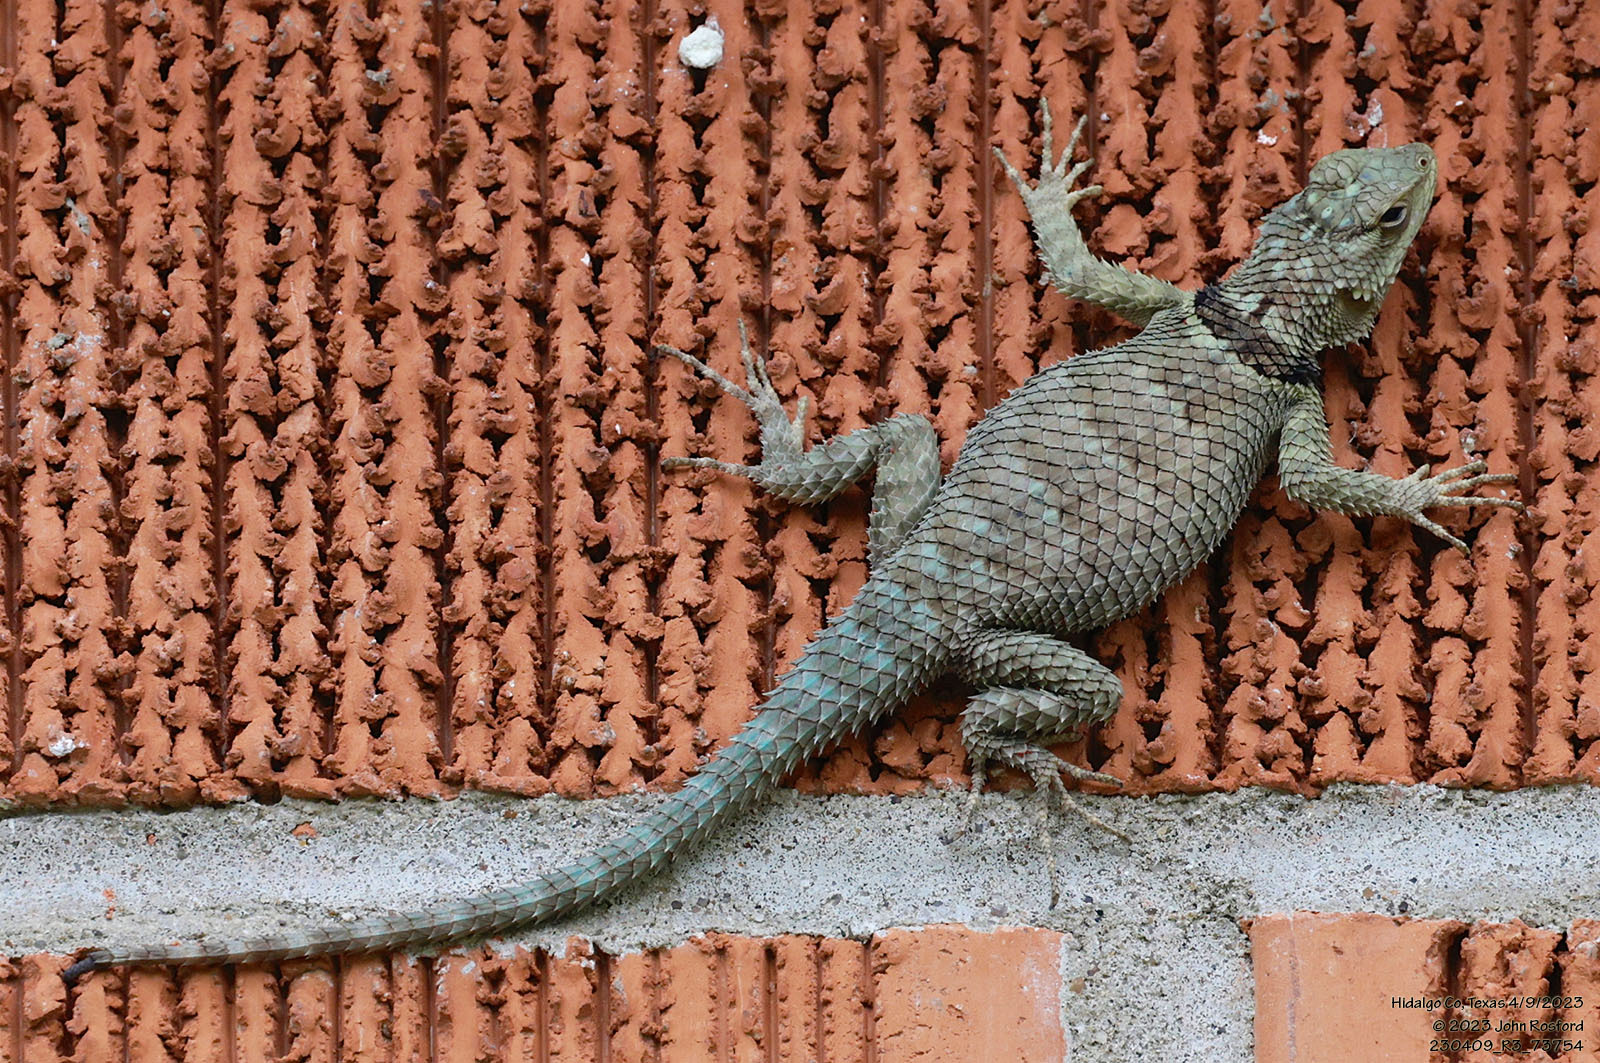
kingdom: Animalia
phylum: Chordata
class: Squamata
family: Phrynosomatidae
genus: Sceloporus
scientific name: Sceloporus cyanogenys
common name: Blue spiny lizard
